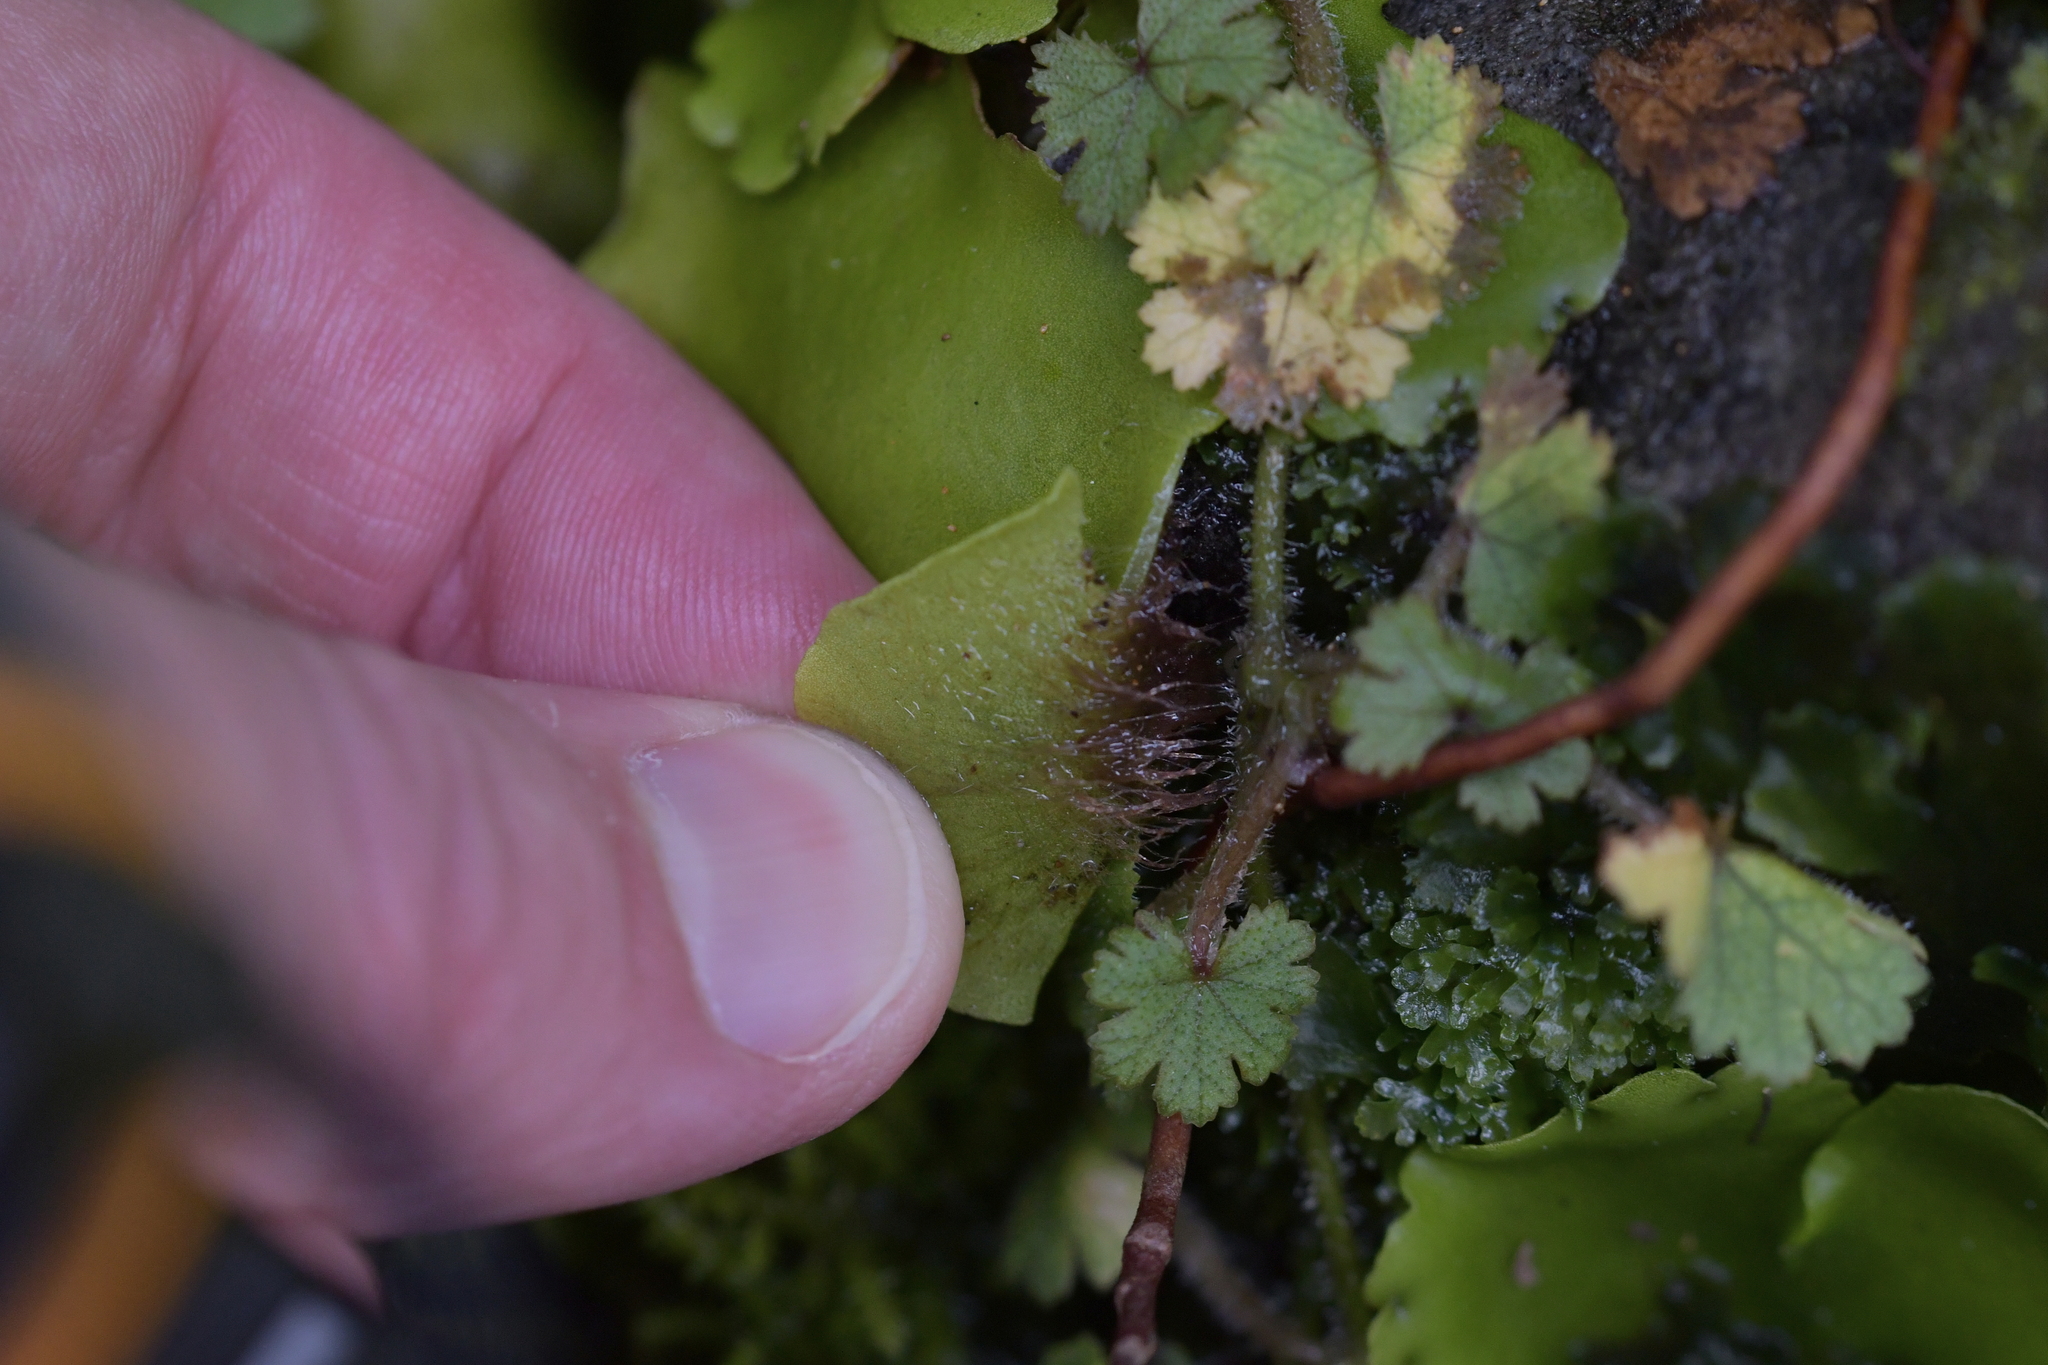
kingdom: Plantae
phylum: Marchantiophyta
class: Marchantiopsida
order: Marchantiales
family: Monocleaceae
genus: Monoclea
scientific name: Monoclea forsteri
